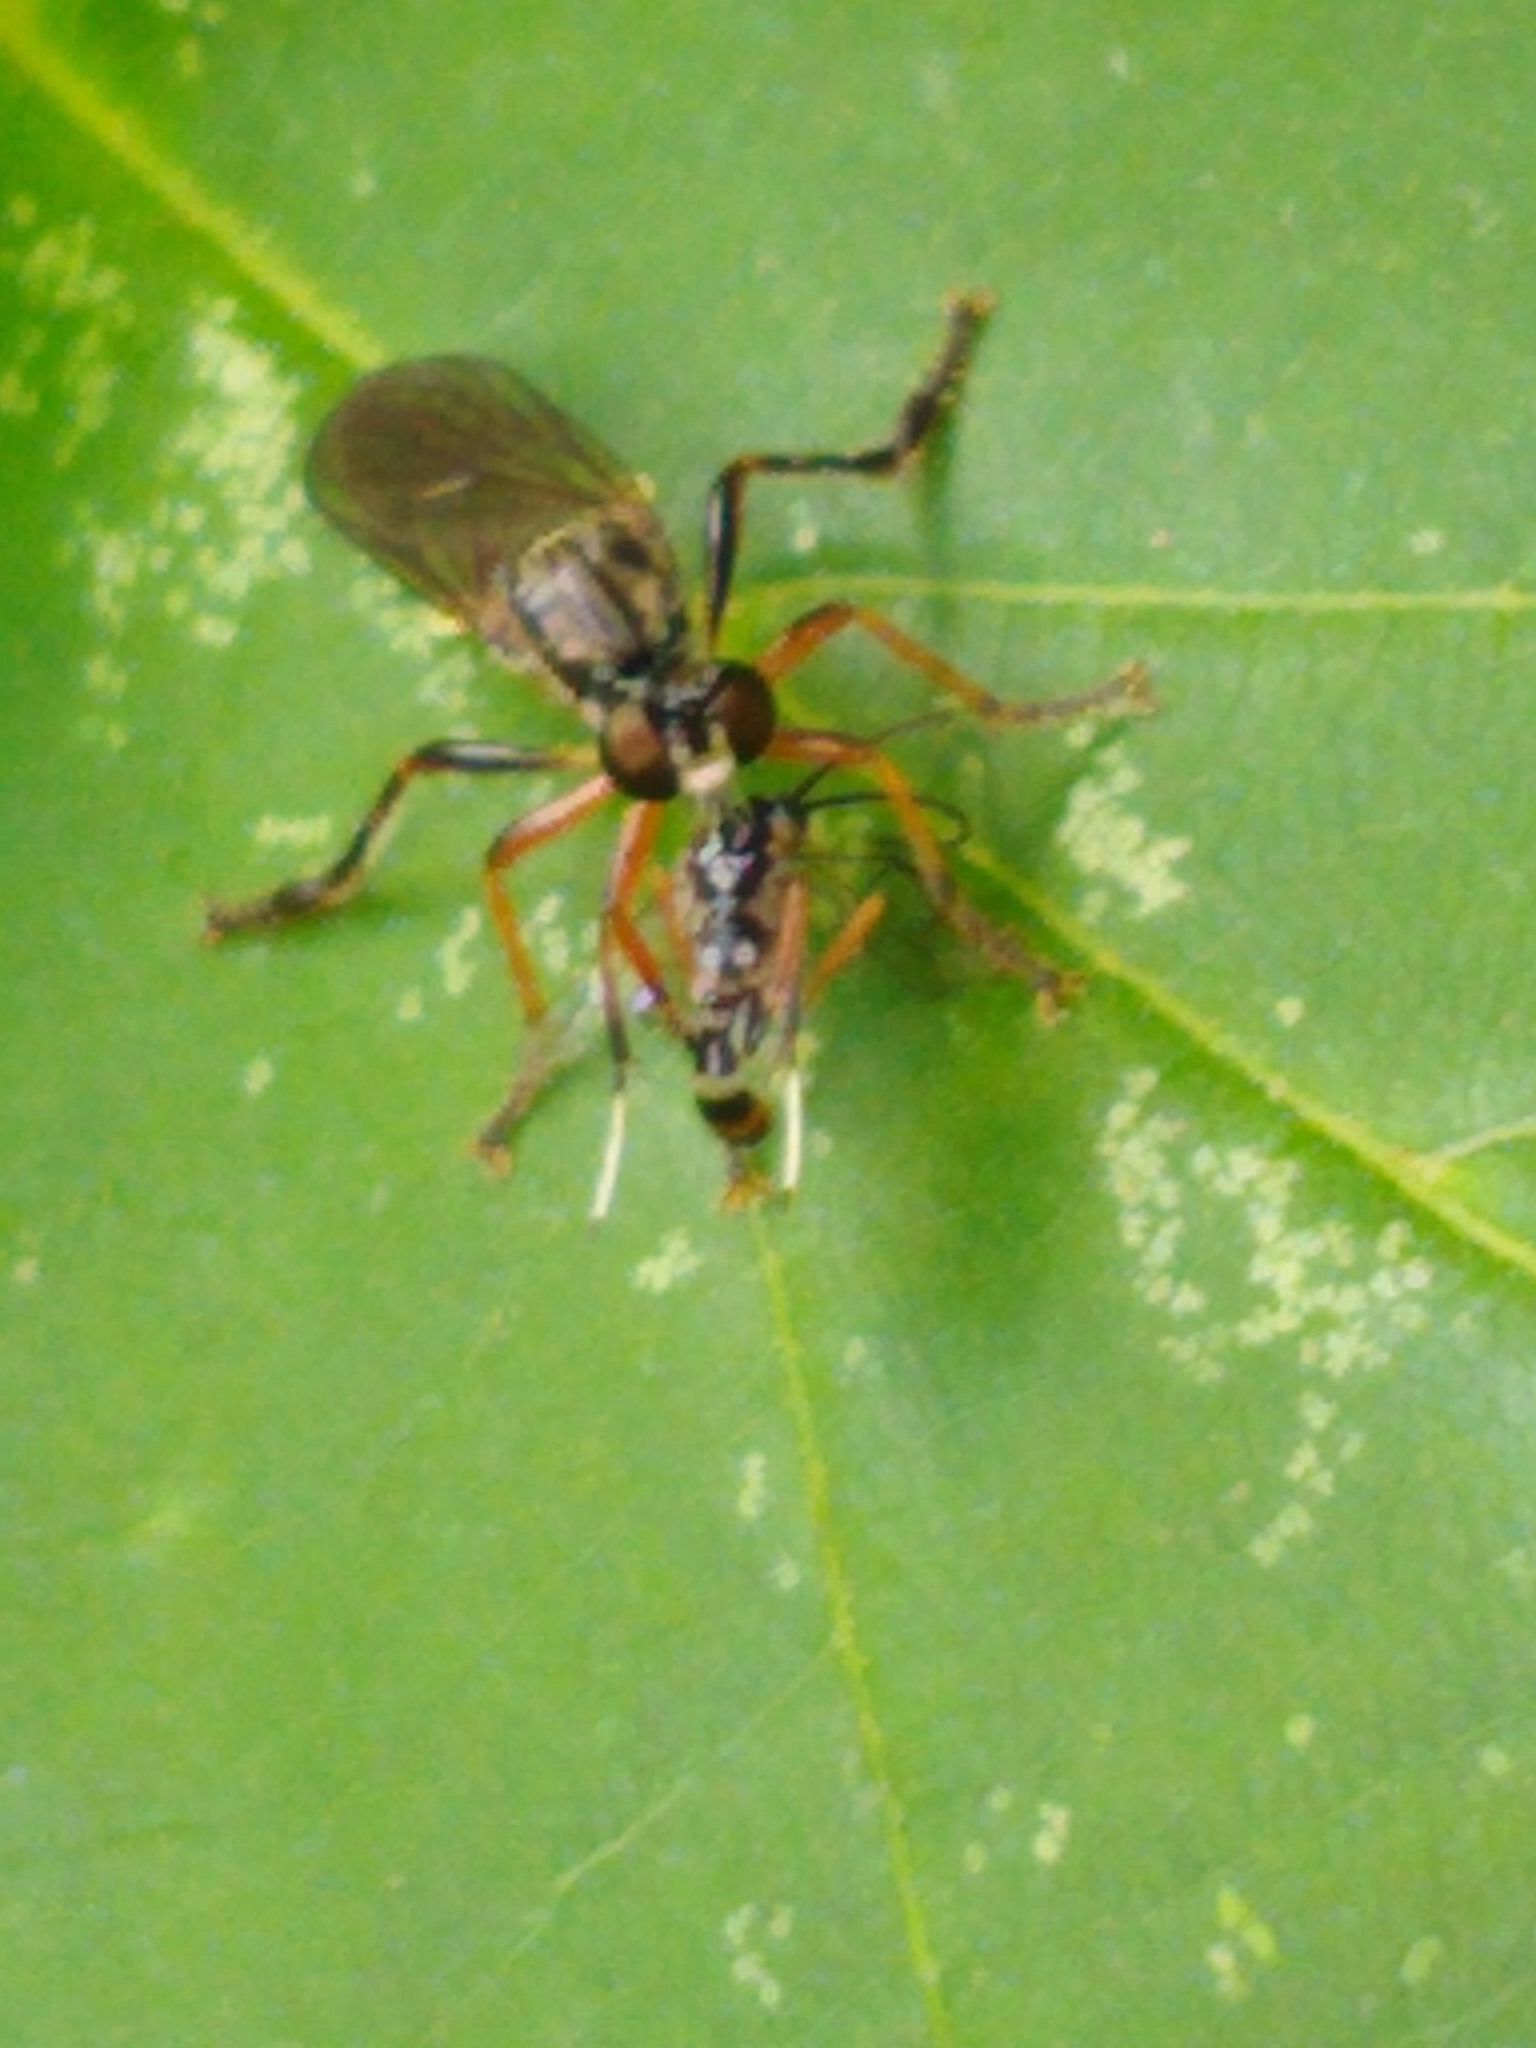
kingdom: Animalia
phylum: Arthropoda
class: Insecta
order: Diptera
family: Asilidae
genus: Dioctria
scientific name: Dioctria hyalipennis
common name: Stripe-legged robberfly
